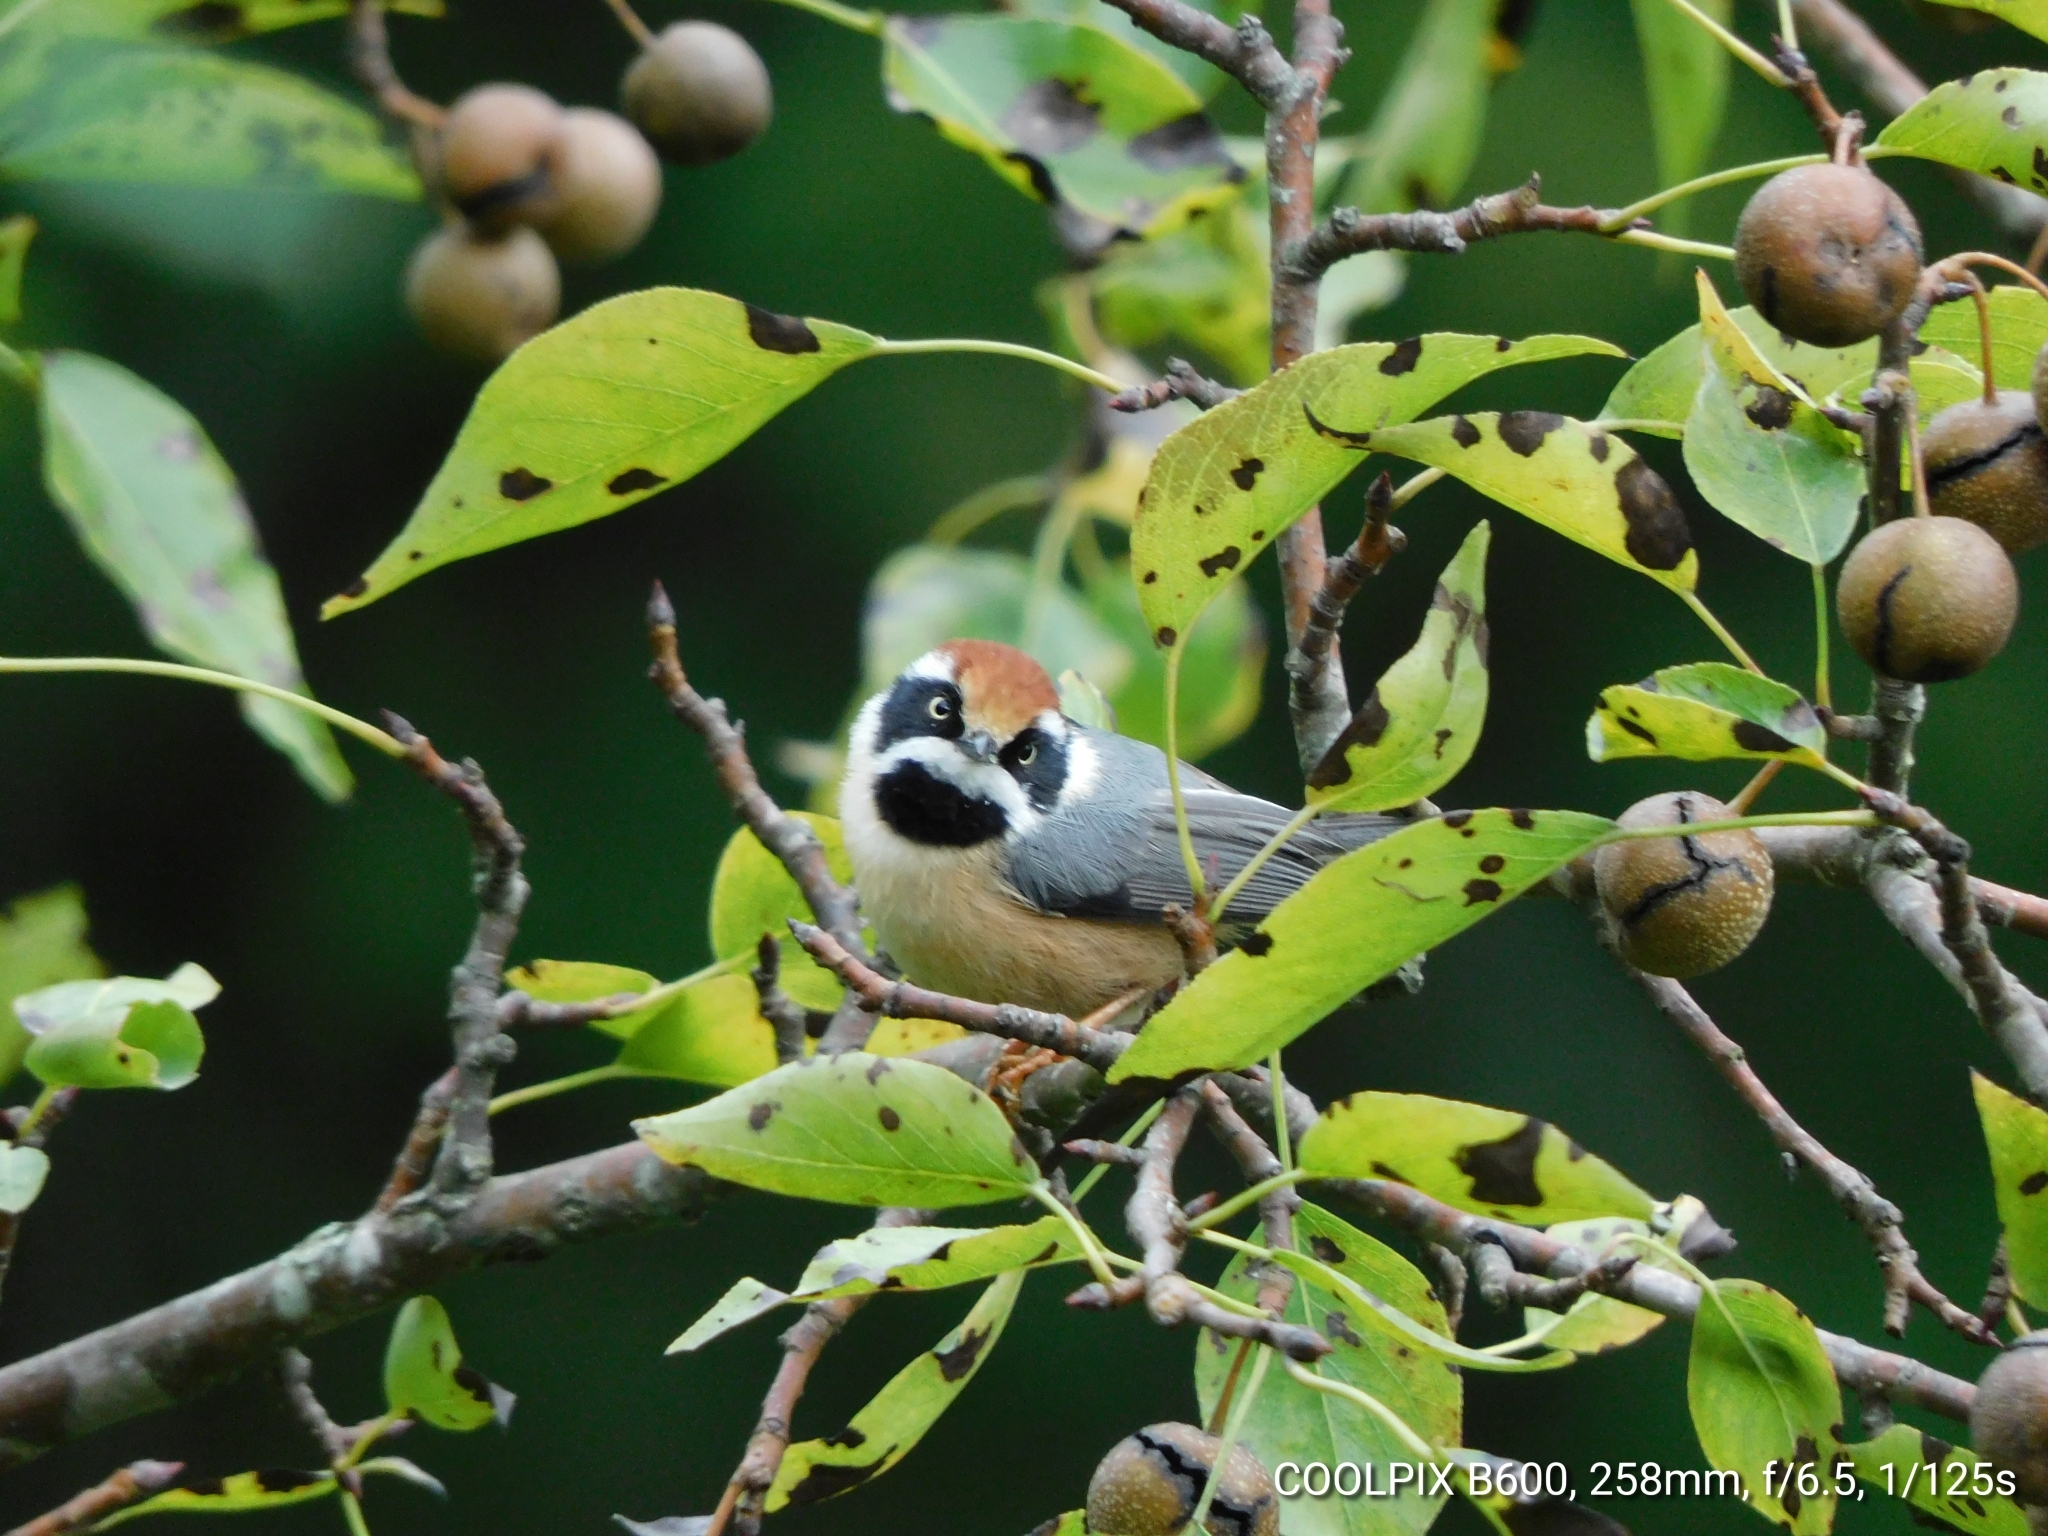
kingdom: Animalia
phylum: Chordata
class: Aves
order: Passeriformes
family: Aegithalidae
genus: Aegithalos
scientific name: Aegithalos concinnus
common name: Black-throated bushtit
